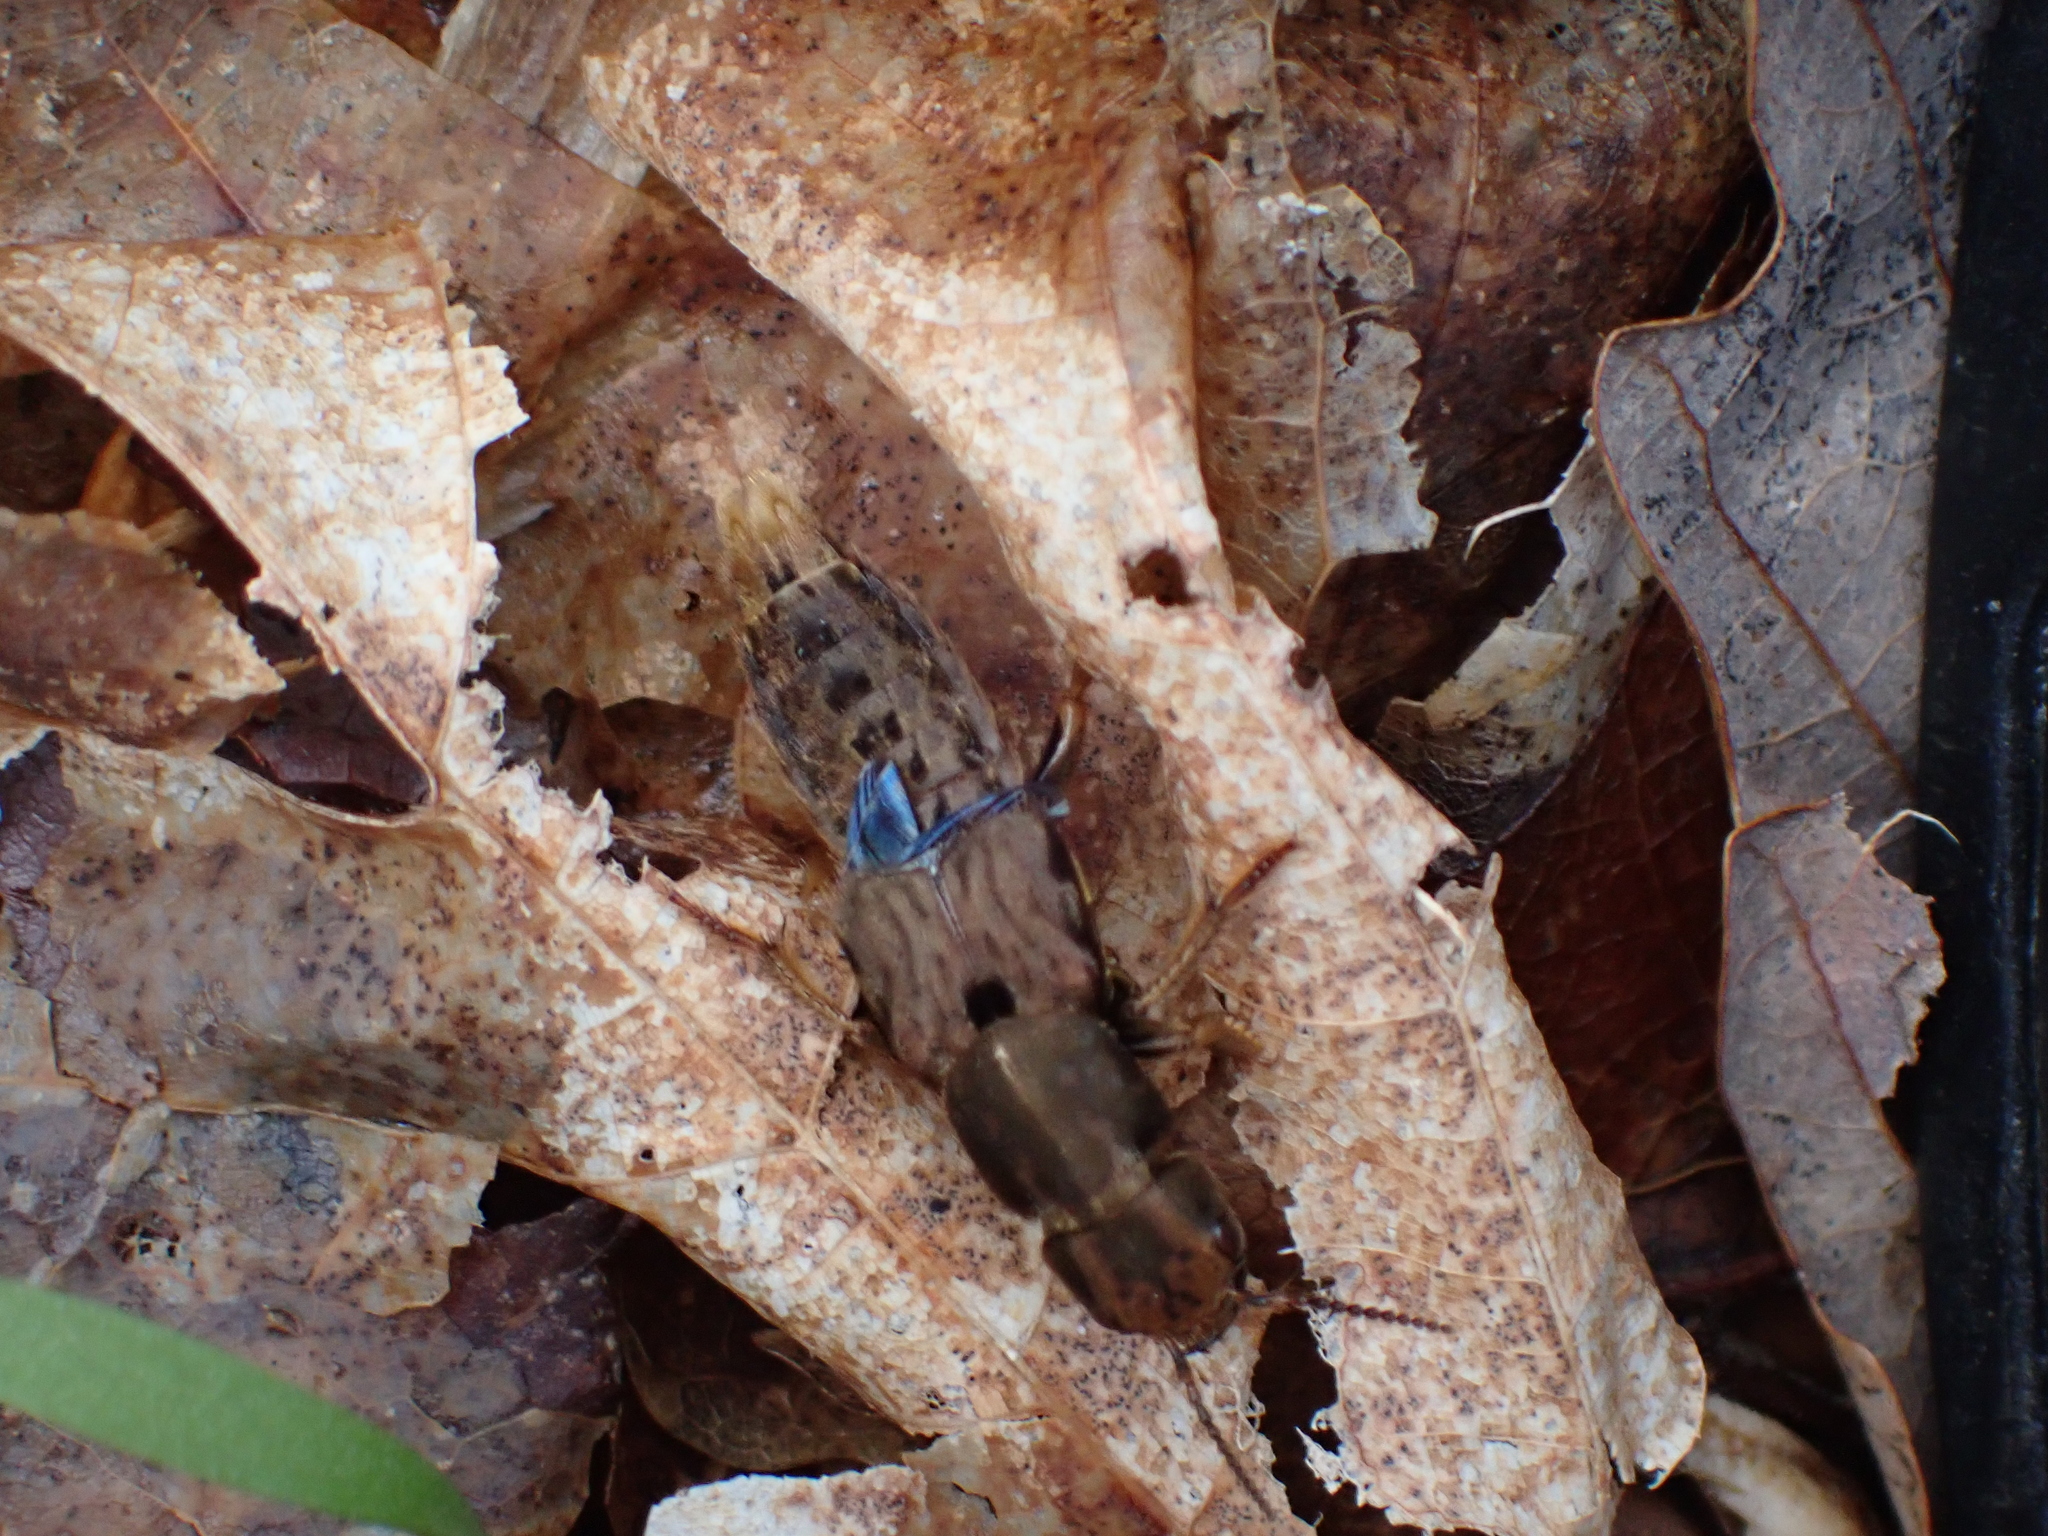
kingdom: Animalia
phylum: Arthropoda
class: Insecta
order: Coleoptera
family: Staphylinidae
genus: Platydracus
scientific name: Platydracus maculosus
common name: Brown rove beetle
